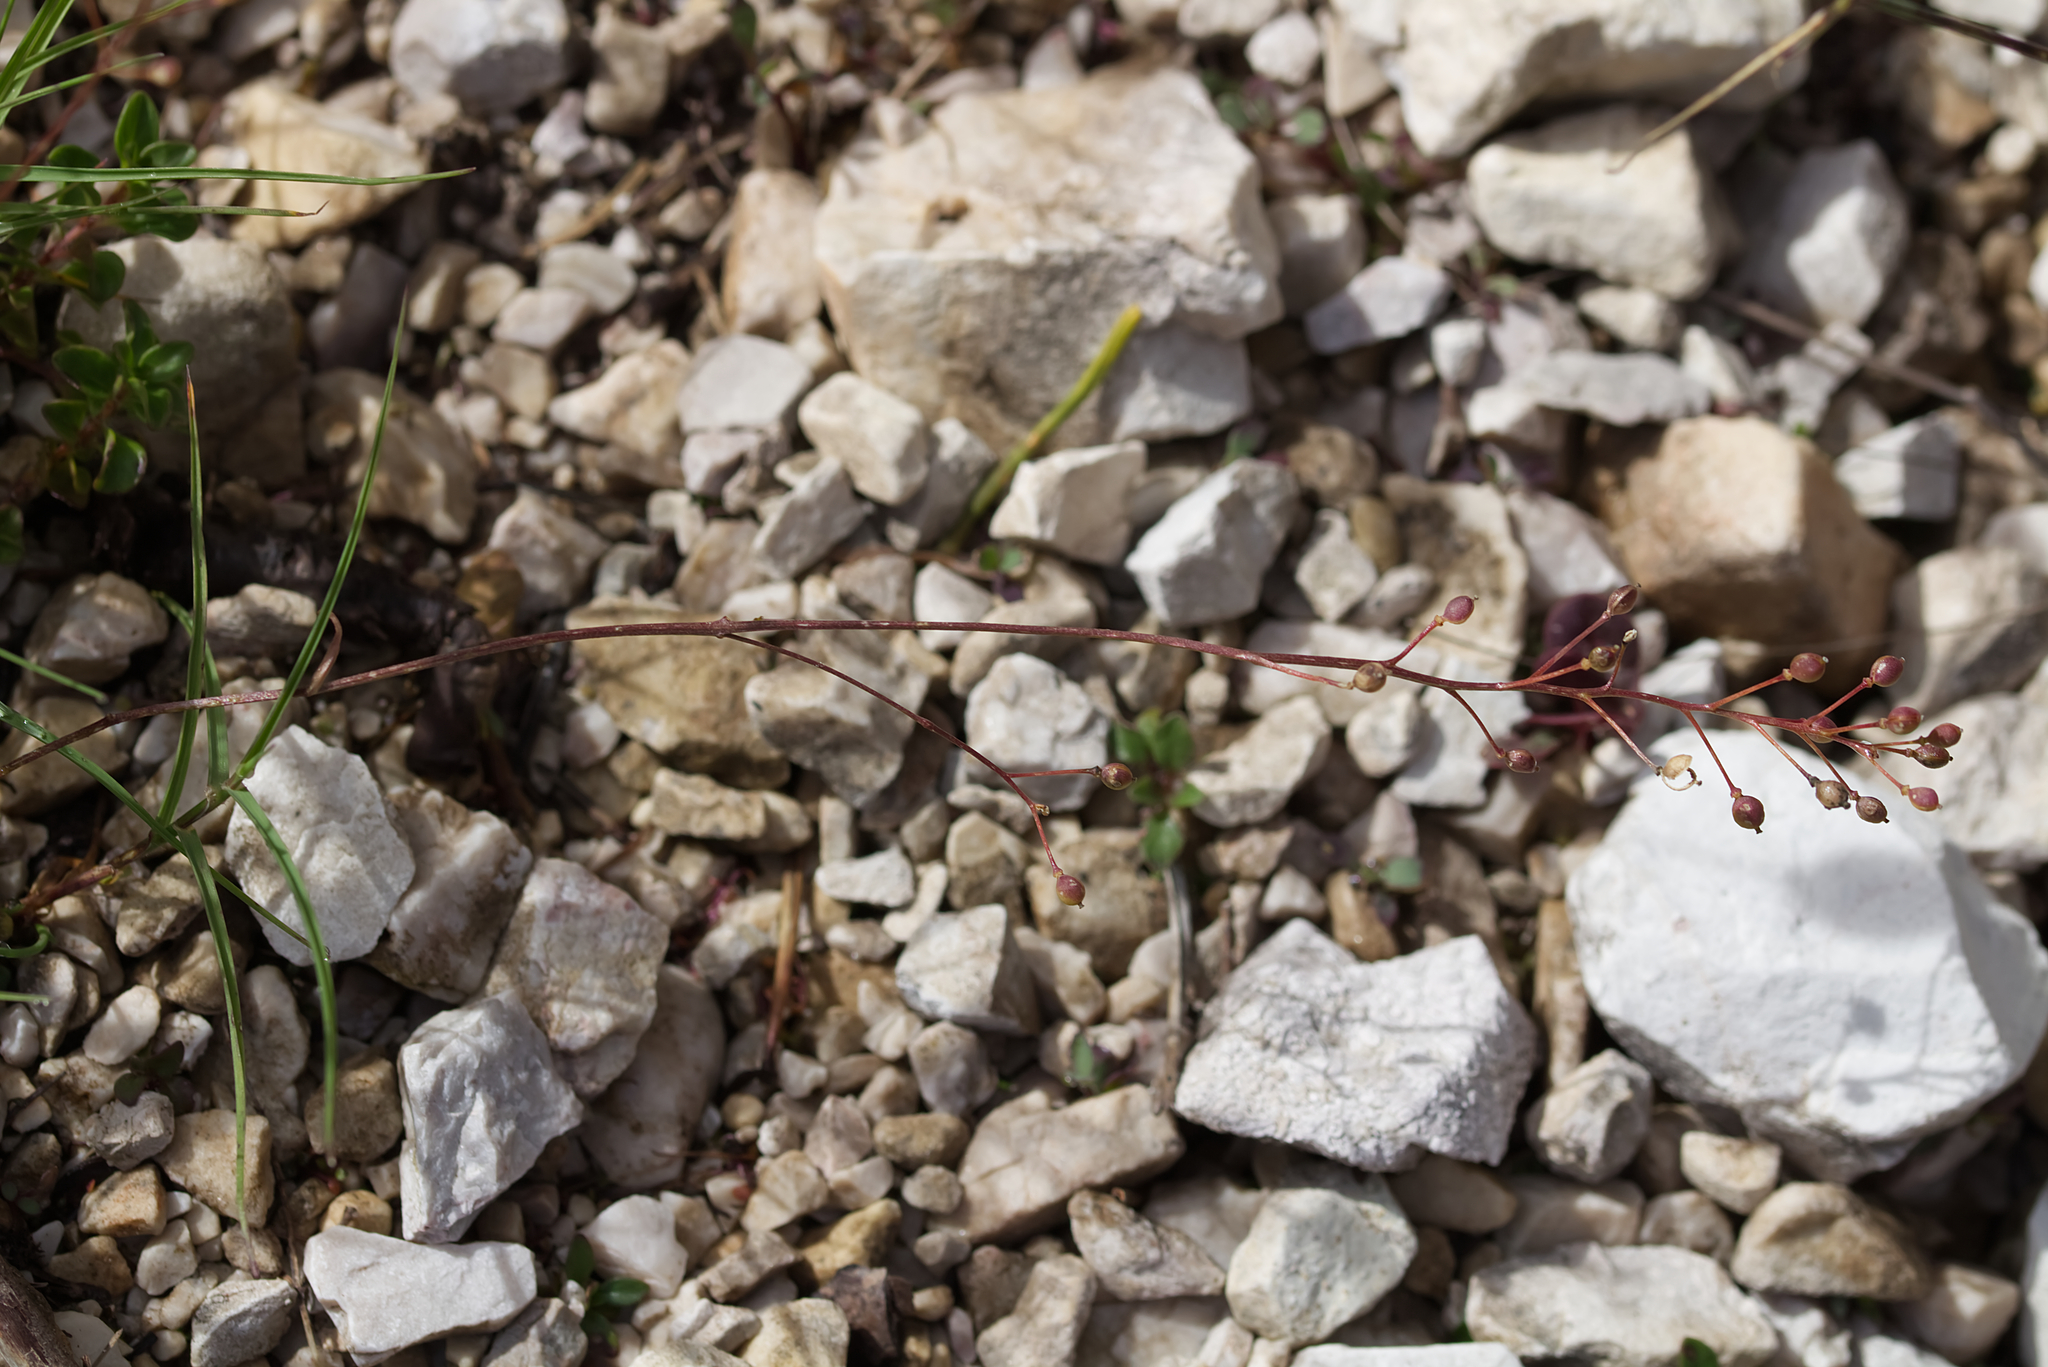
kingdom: Plantae
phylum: Tracheophyta
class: Magnoliopsida
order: Brassicales
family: Brassicaceae
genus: Kernera
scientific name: Kernera saxatilis
